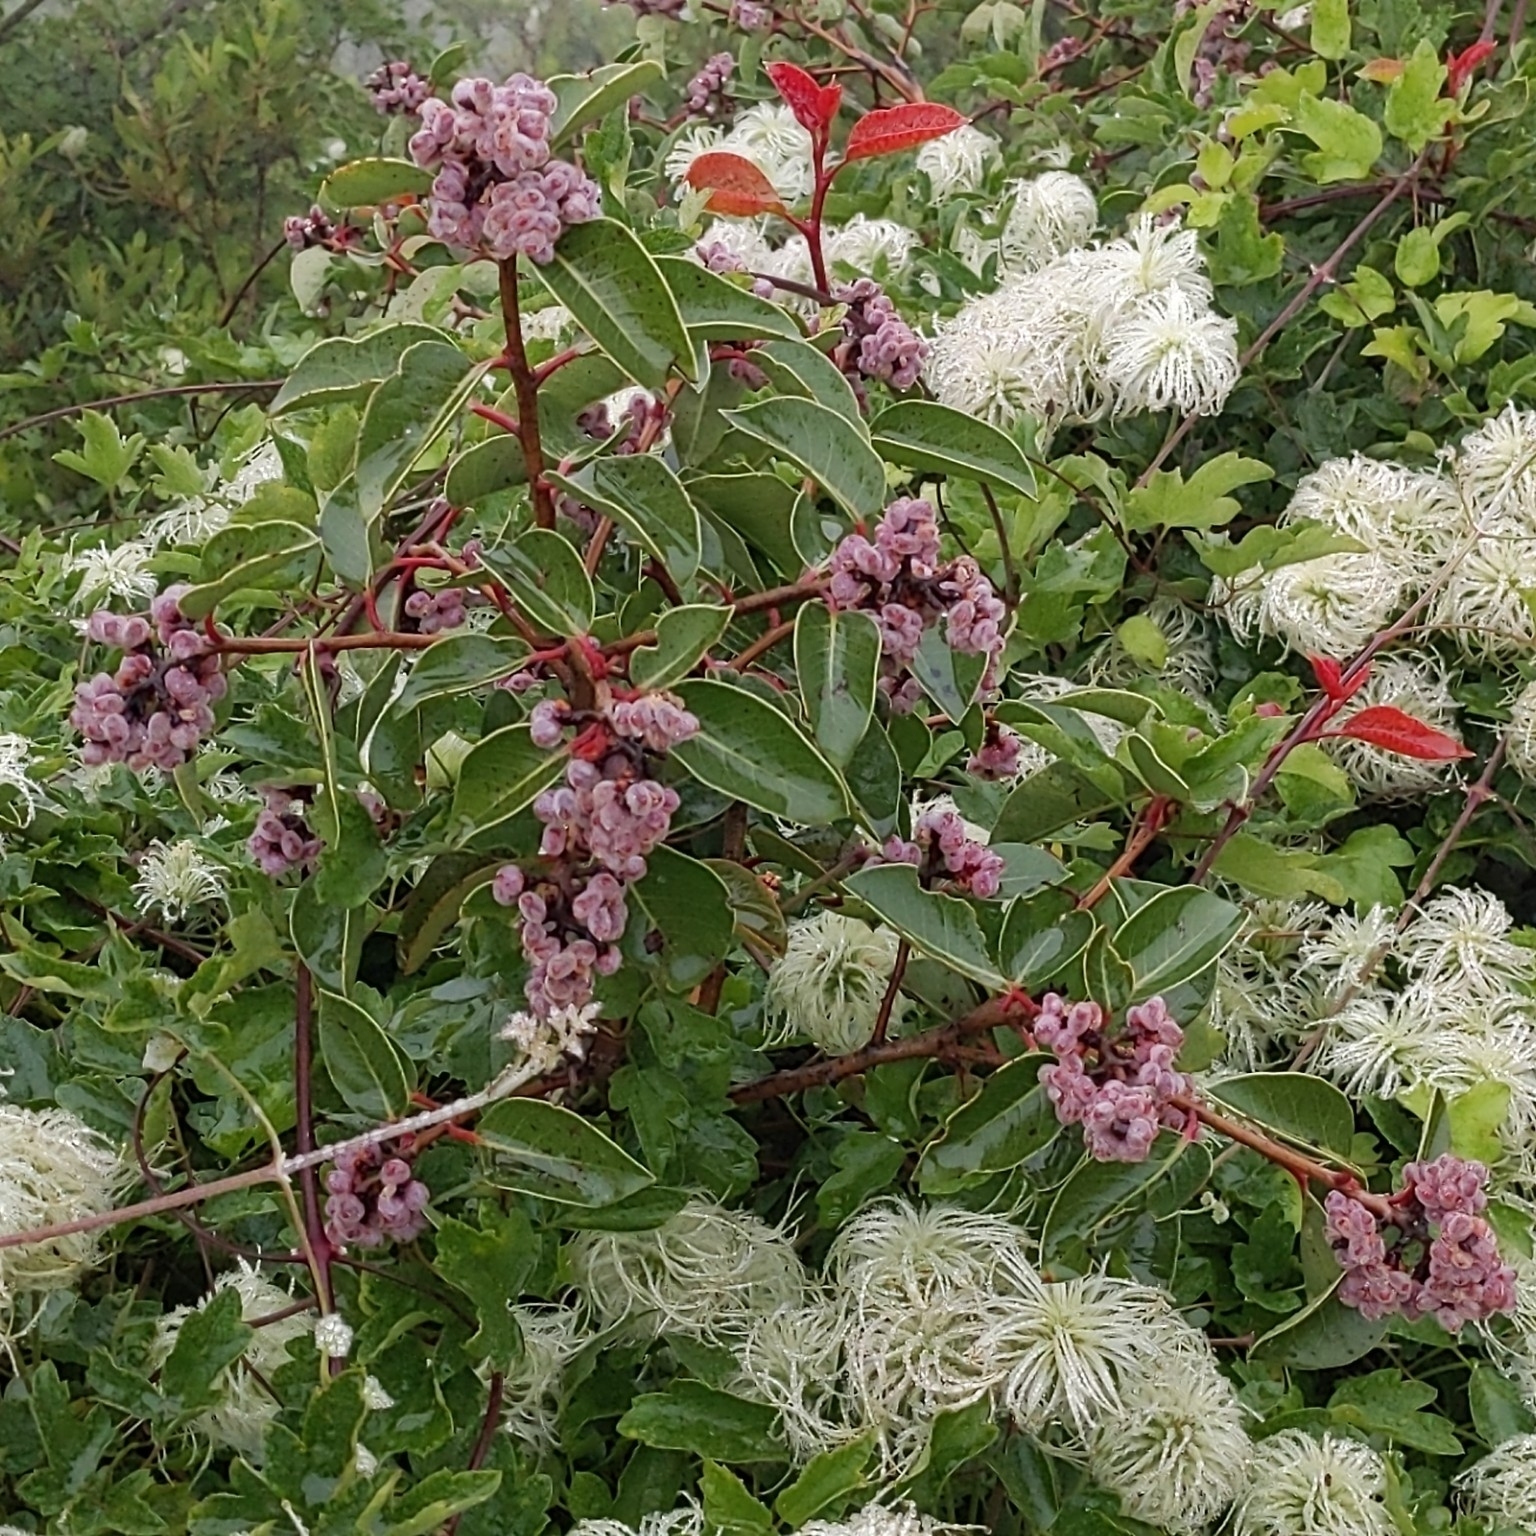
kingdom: Plantae
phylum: Tracheophyta
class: Magnoliopsida
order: Sapindales
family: Anacardiaceae
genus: Rhus
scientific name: Rhus ovata
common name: Sugar sumac
